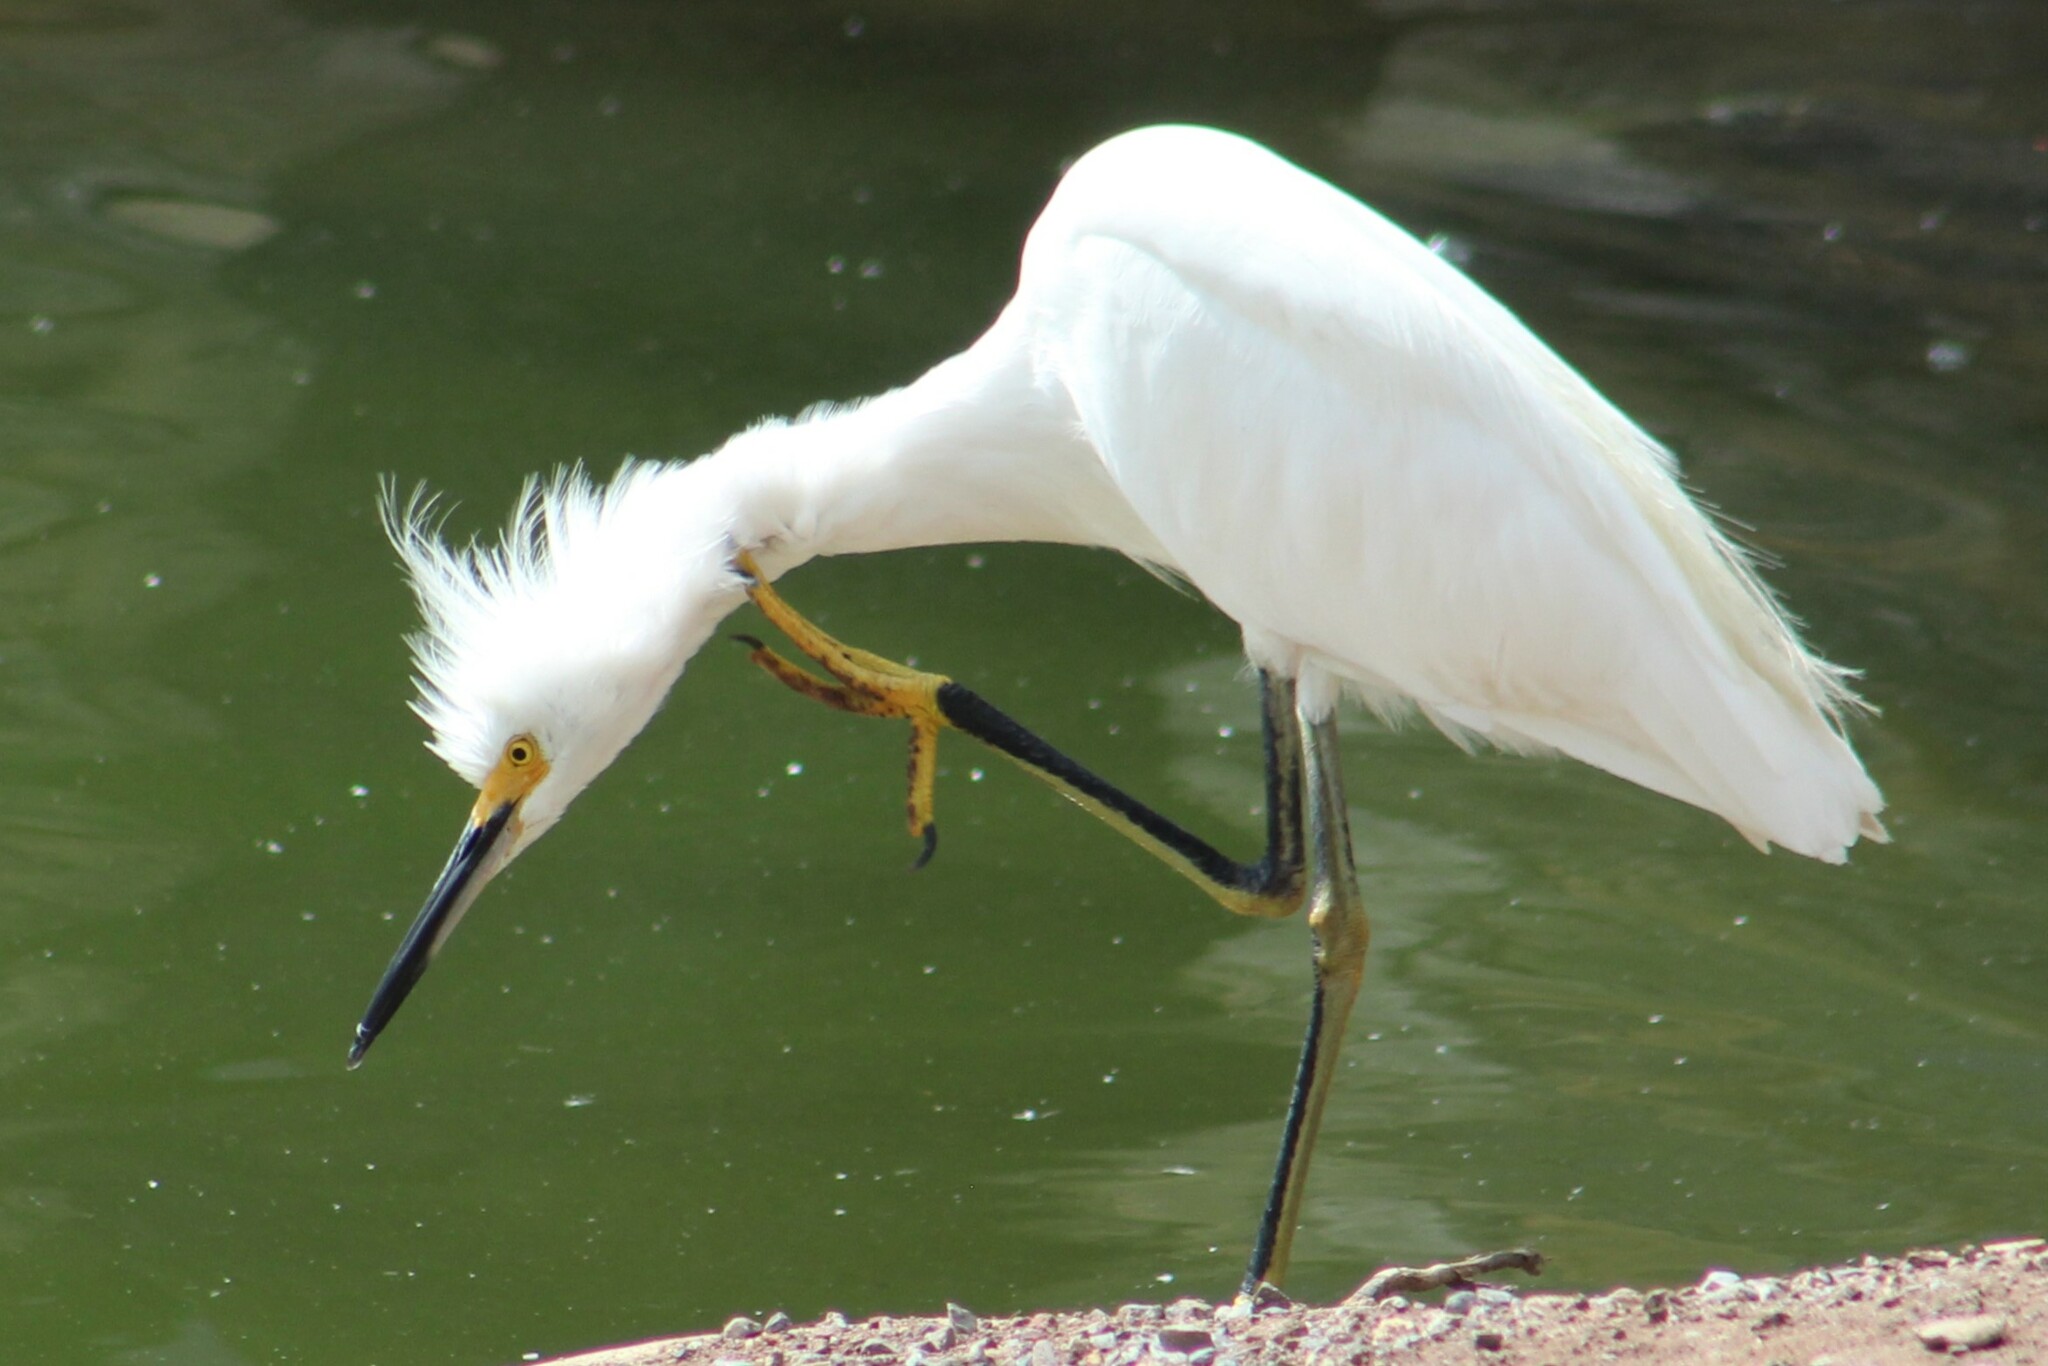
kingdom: Animalia
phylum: Chordata
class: Aves
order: Pelecaniformes
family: Ardeidae
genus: Egretta
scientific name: Egretta thula
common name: Snowy egret
